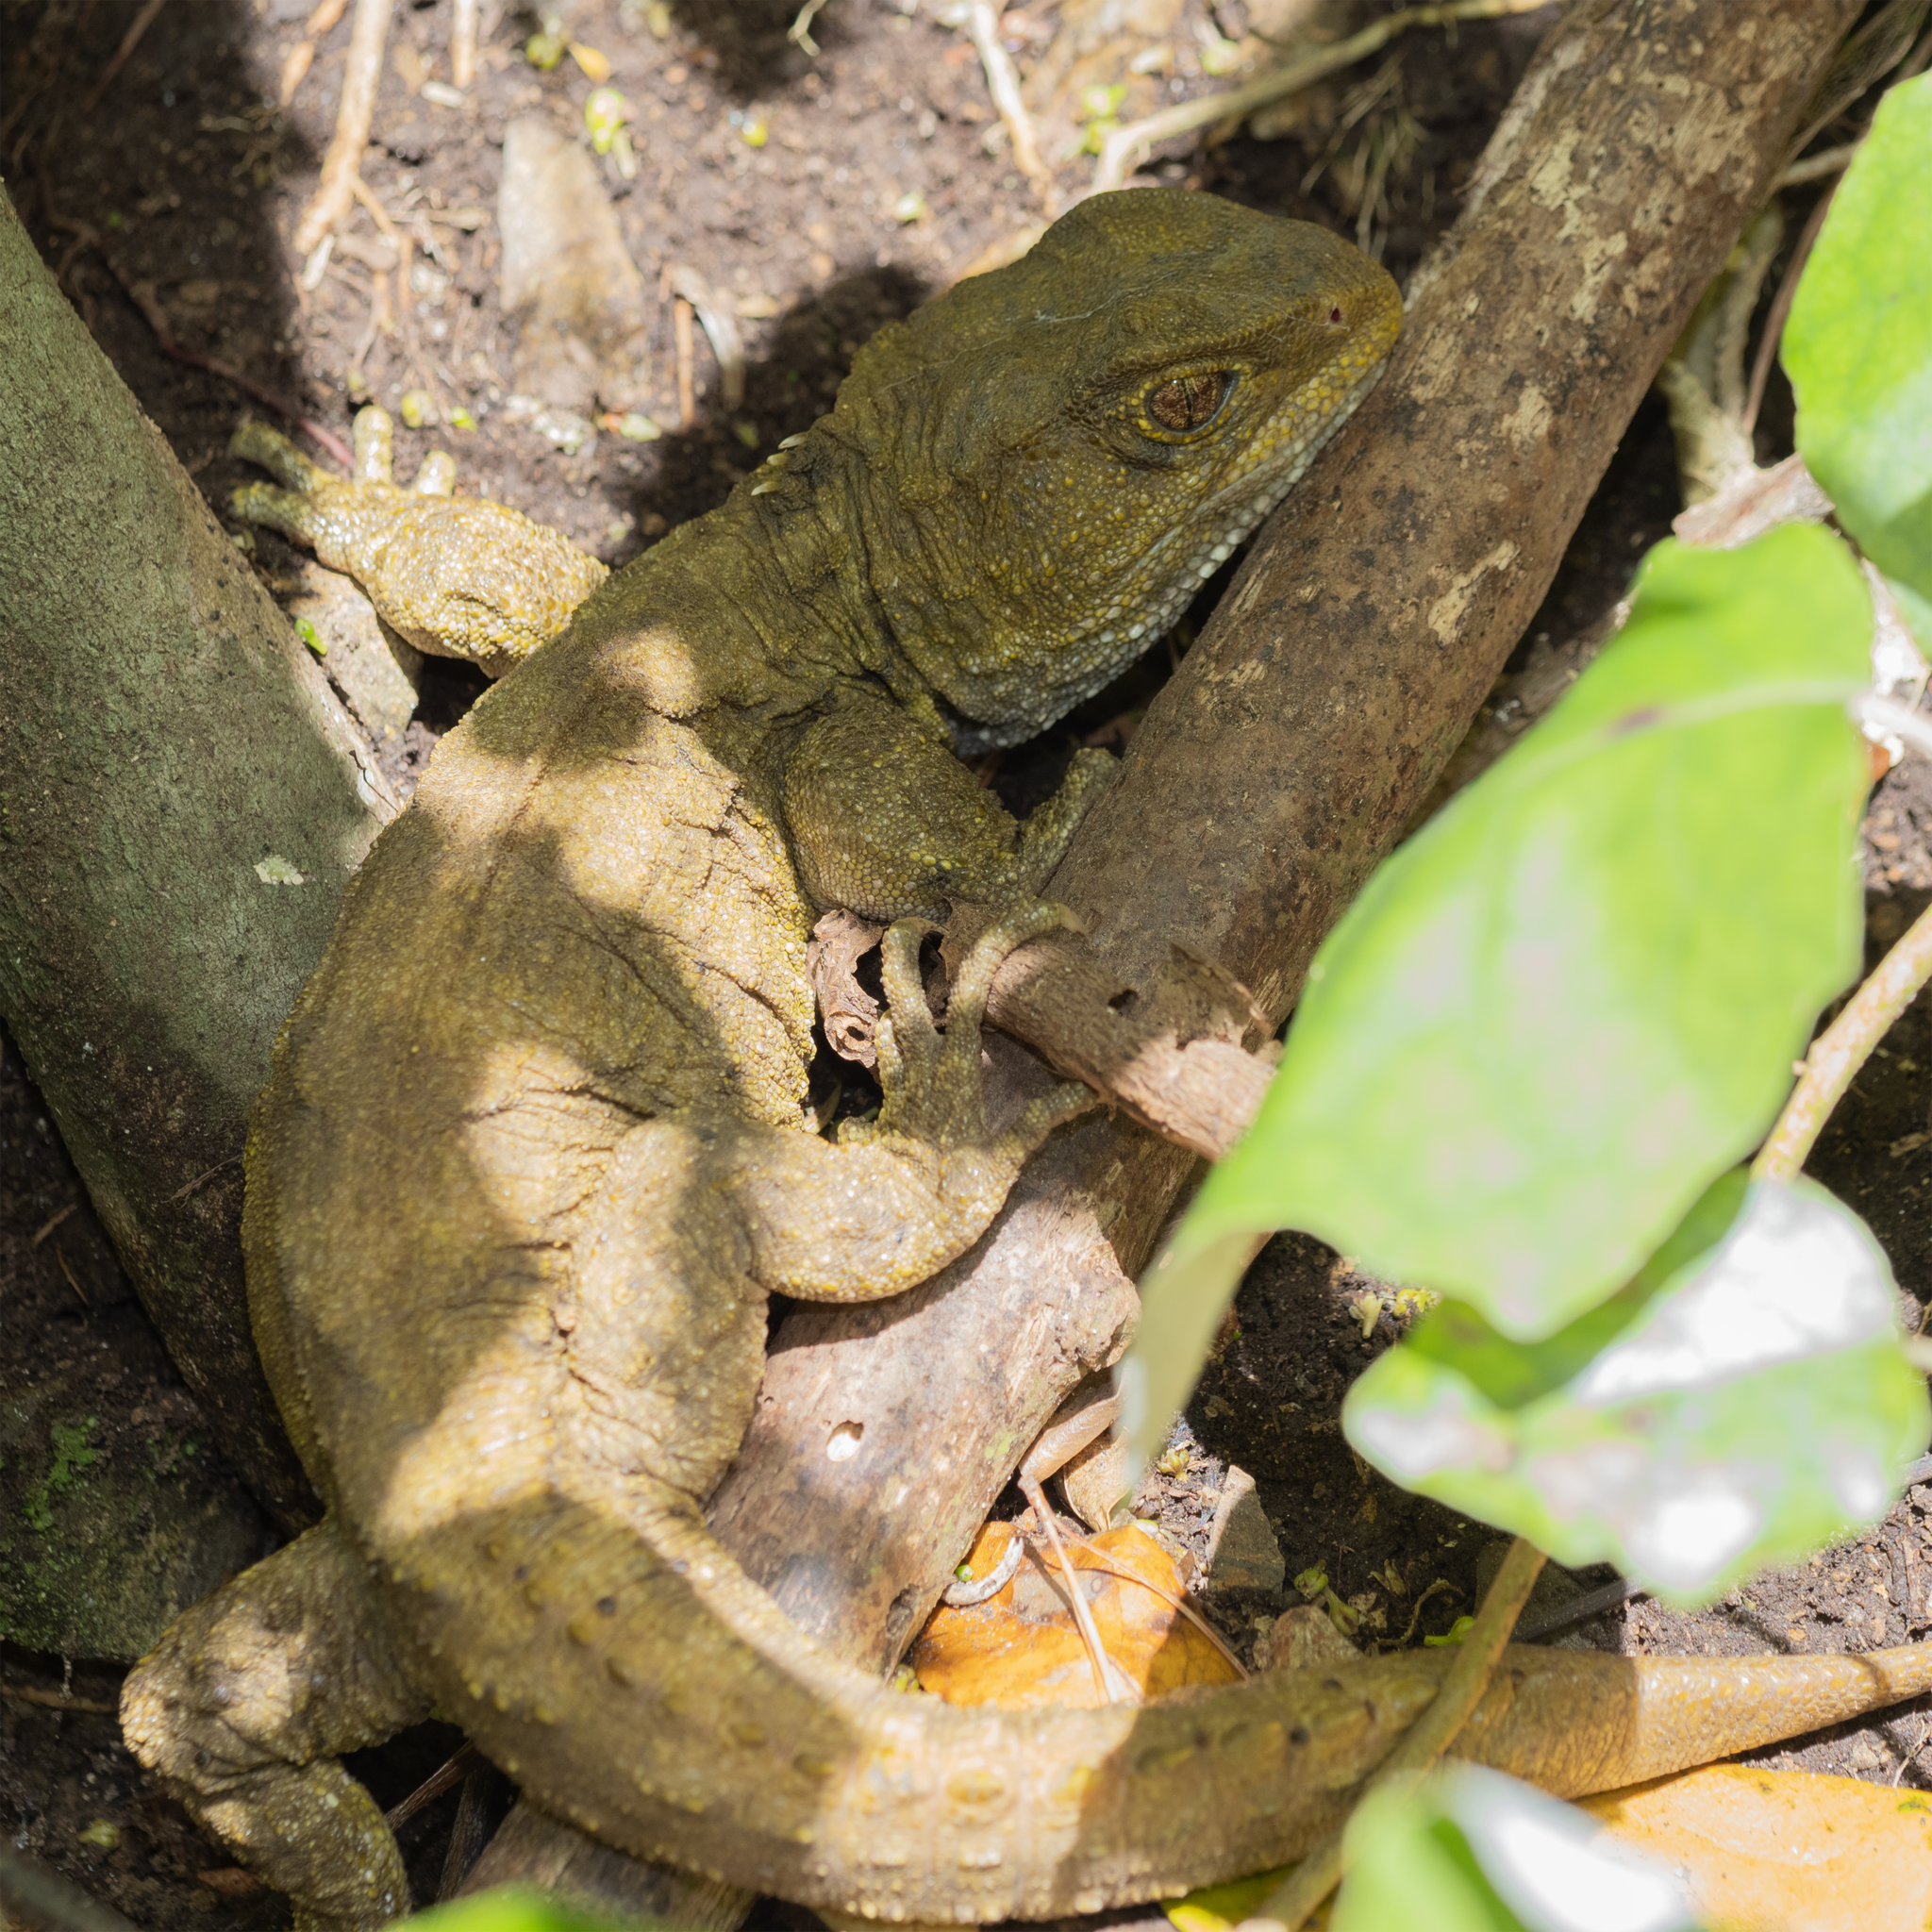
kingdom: Animalia
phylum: Chordata
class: Sphenodontia
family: Sphenodontidae
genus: Sphenodon
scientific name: Sphenodon punctatus
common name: Tuatara
